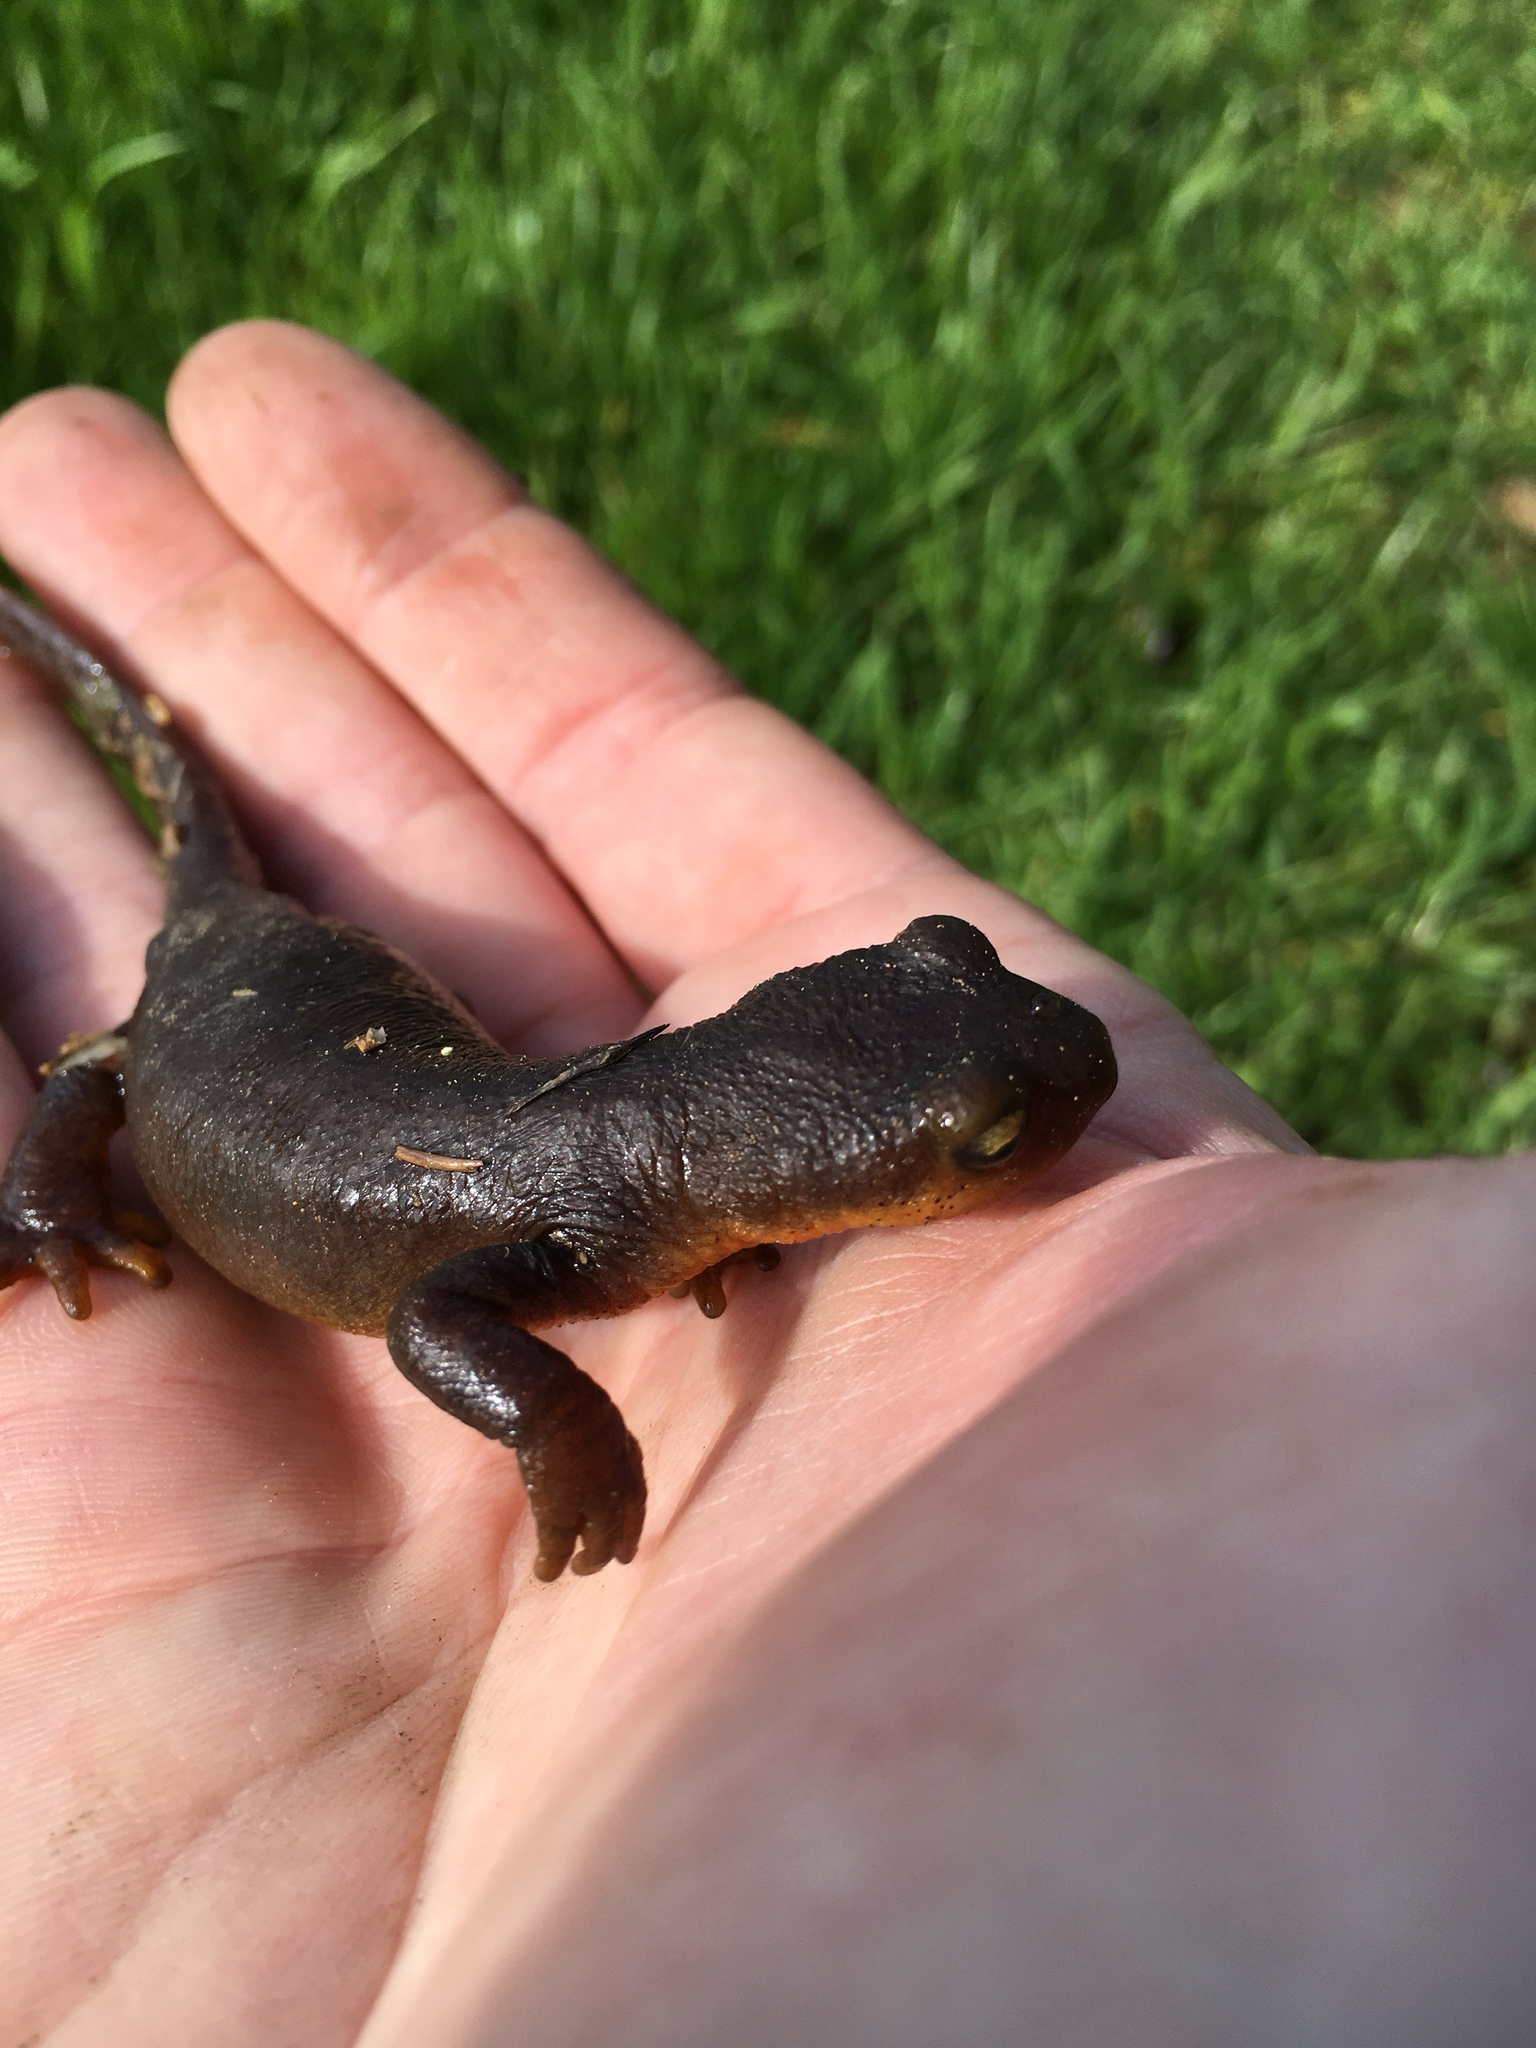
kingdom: Animalia
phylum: Chordata
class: Amphibia
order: Caudata
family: Salamandridae
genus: Taricha
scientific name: Taricha torosa
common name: California newt
